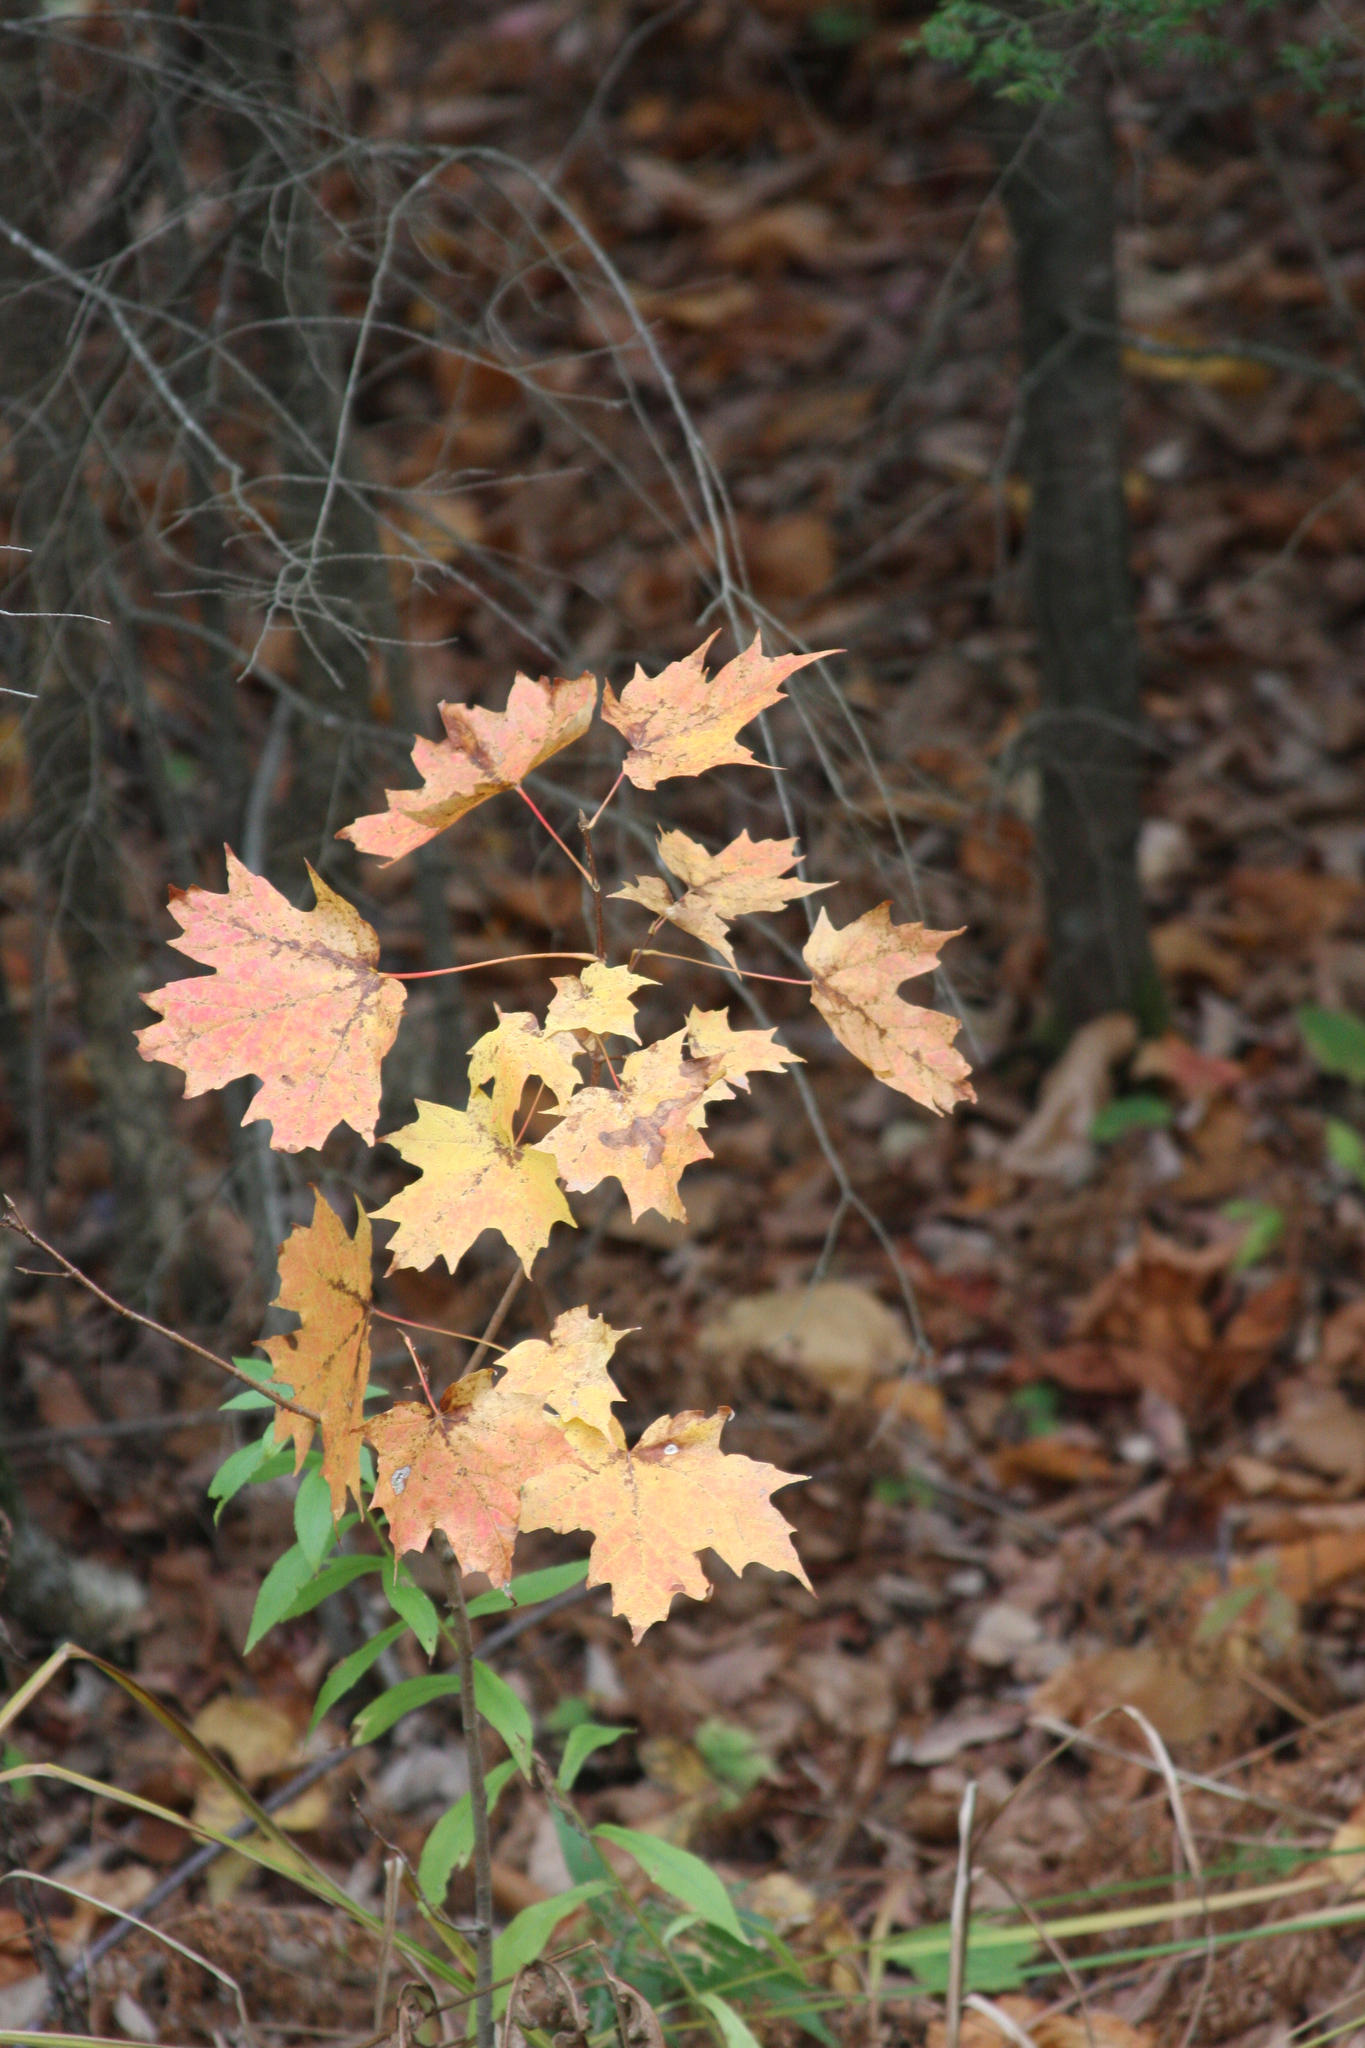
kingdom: Plantae
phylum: Tracheophyta
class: Magnoliopsida
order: Sapindales
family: Sapindaceae
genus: Acer
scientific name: Acer saccharum
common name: Sugar maple
